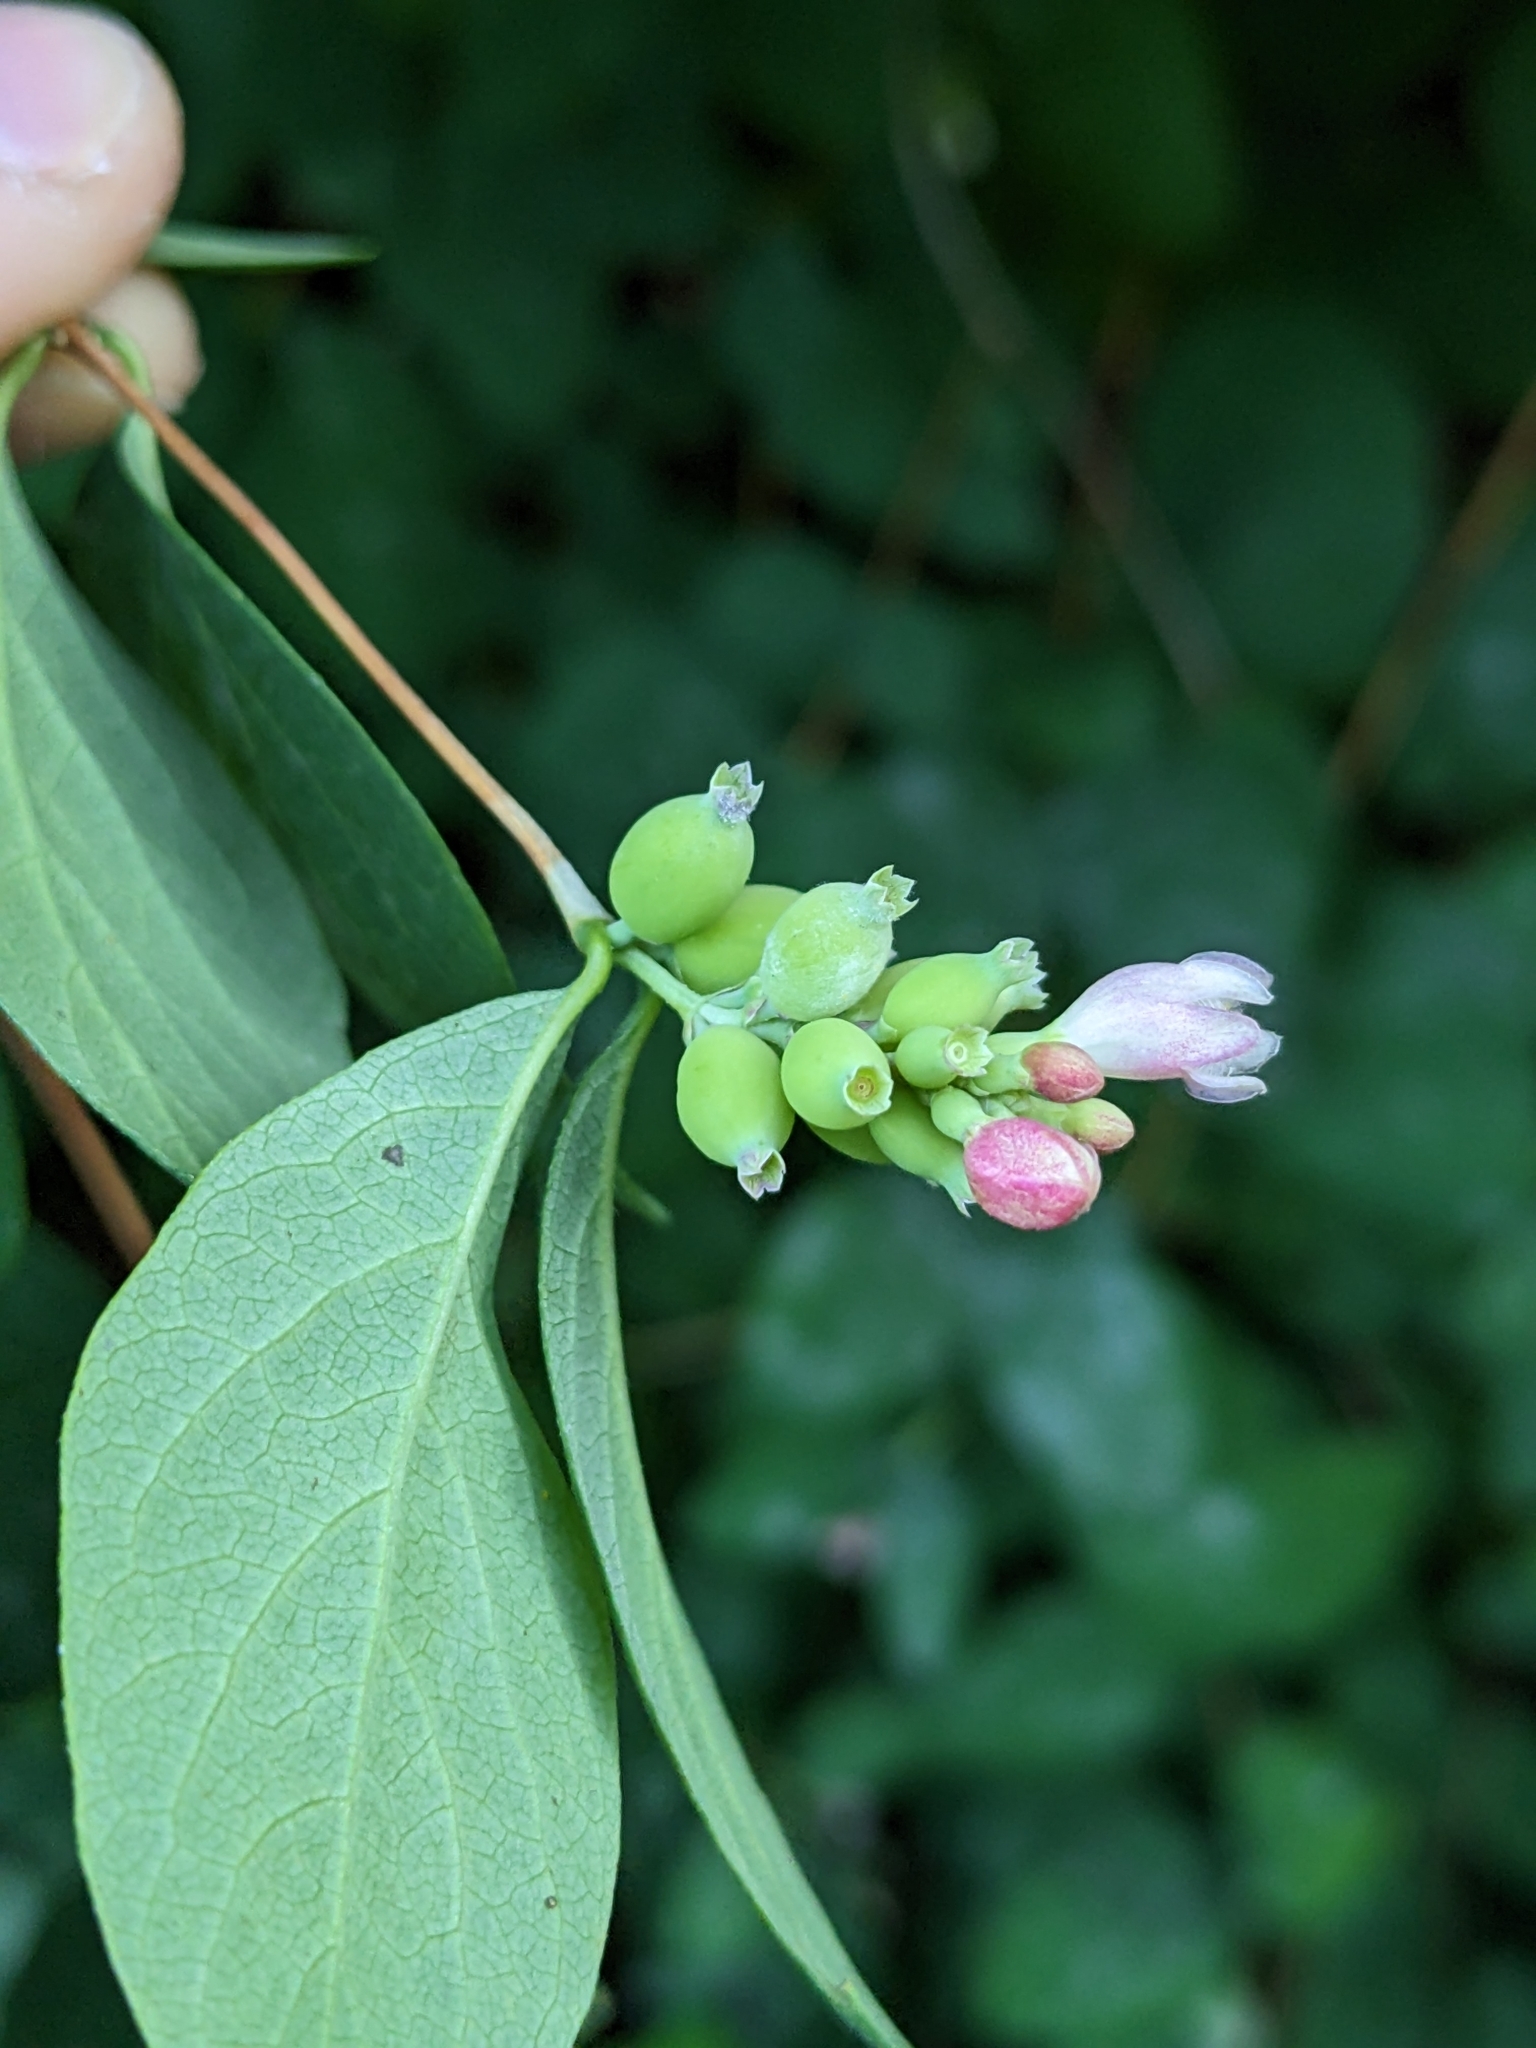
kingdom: Plantae
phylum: Tracheophyta
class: Magnoliopsida
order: Dipsacales
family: Caprifoliaceae
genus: Symphoricarpos
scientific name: Symphoricarpos albus
